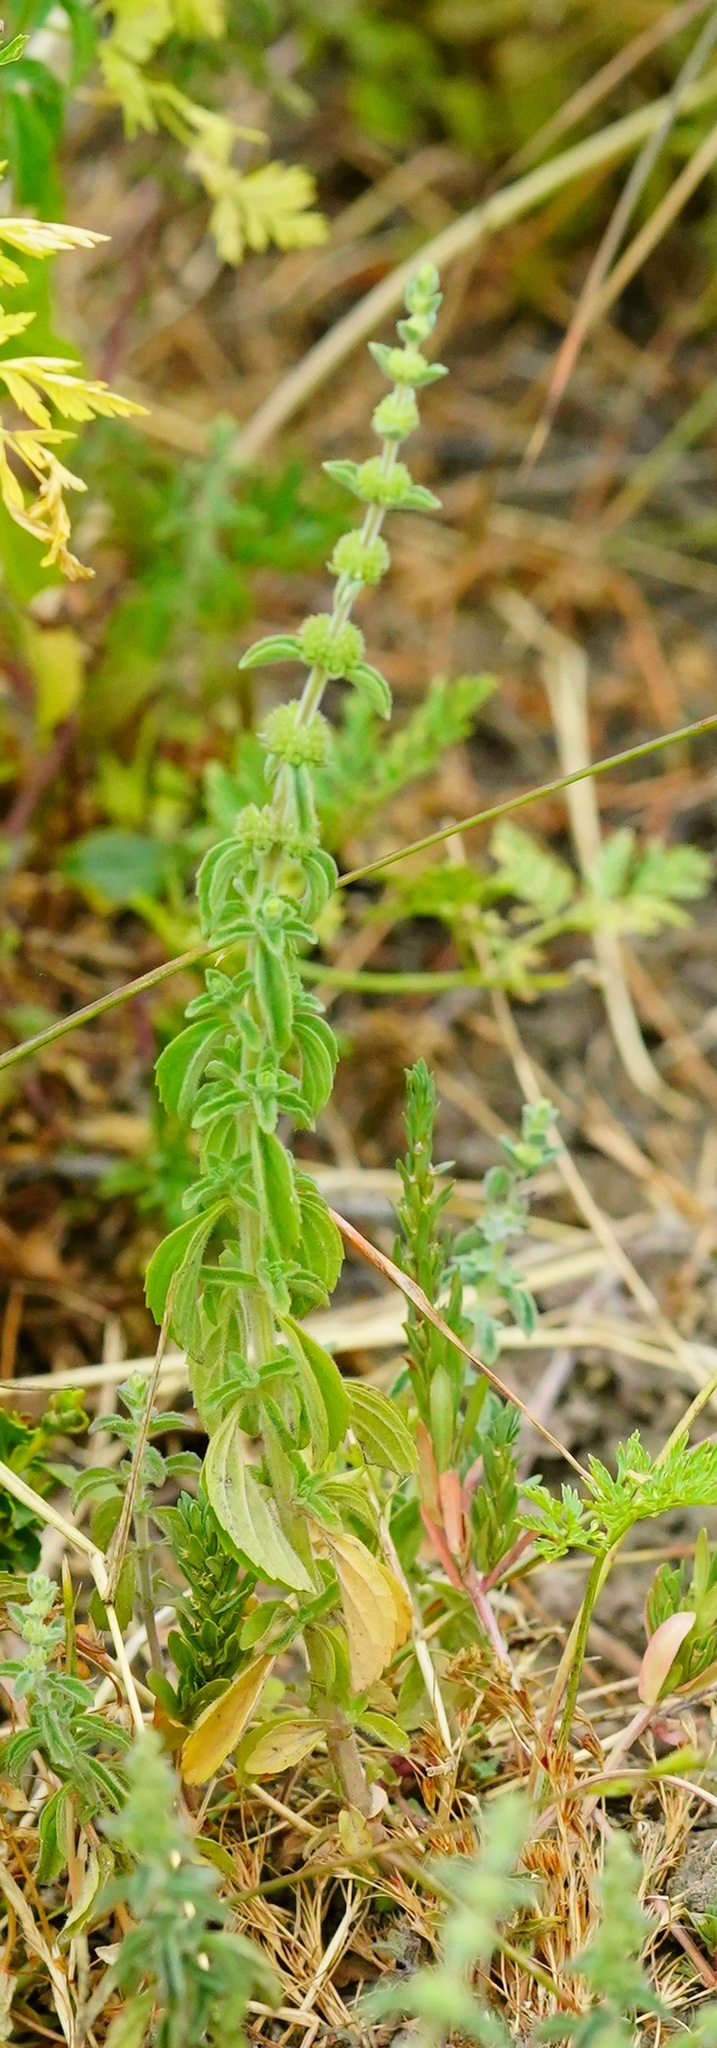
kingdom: Plantae
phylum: Tracheophyta
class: Magnoliopsida
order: Lamiales
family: Lamiaceae
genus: Mentha
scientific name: Mentha pulegium
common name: Pennyroyal
